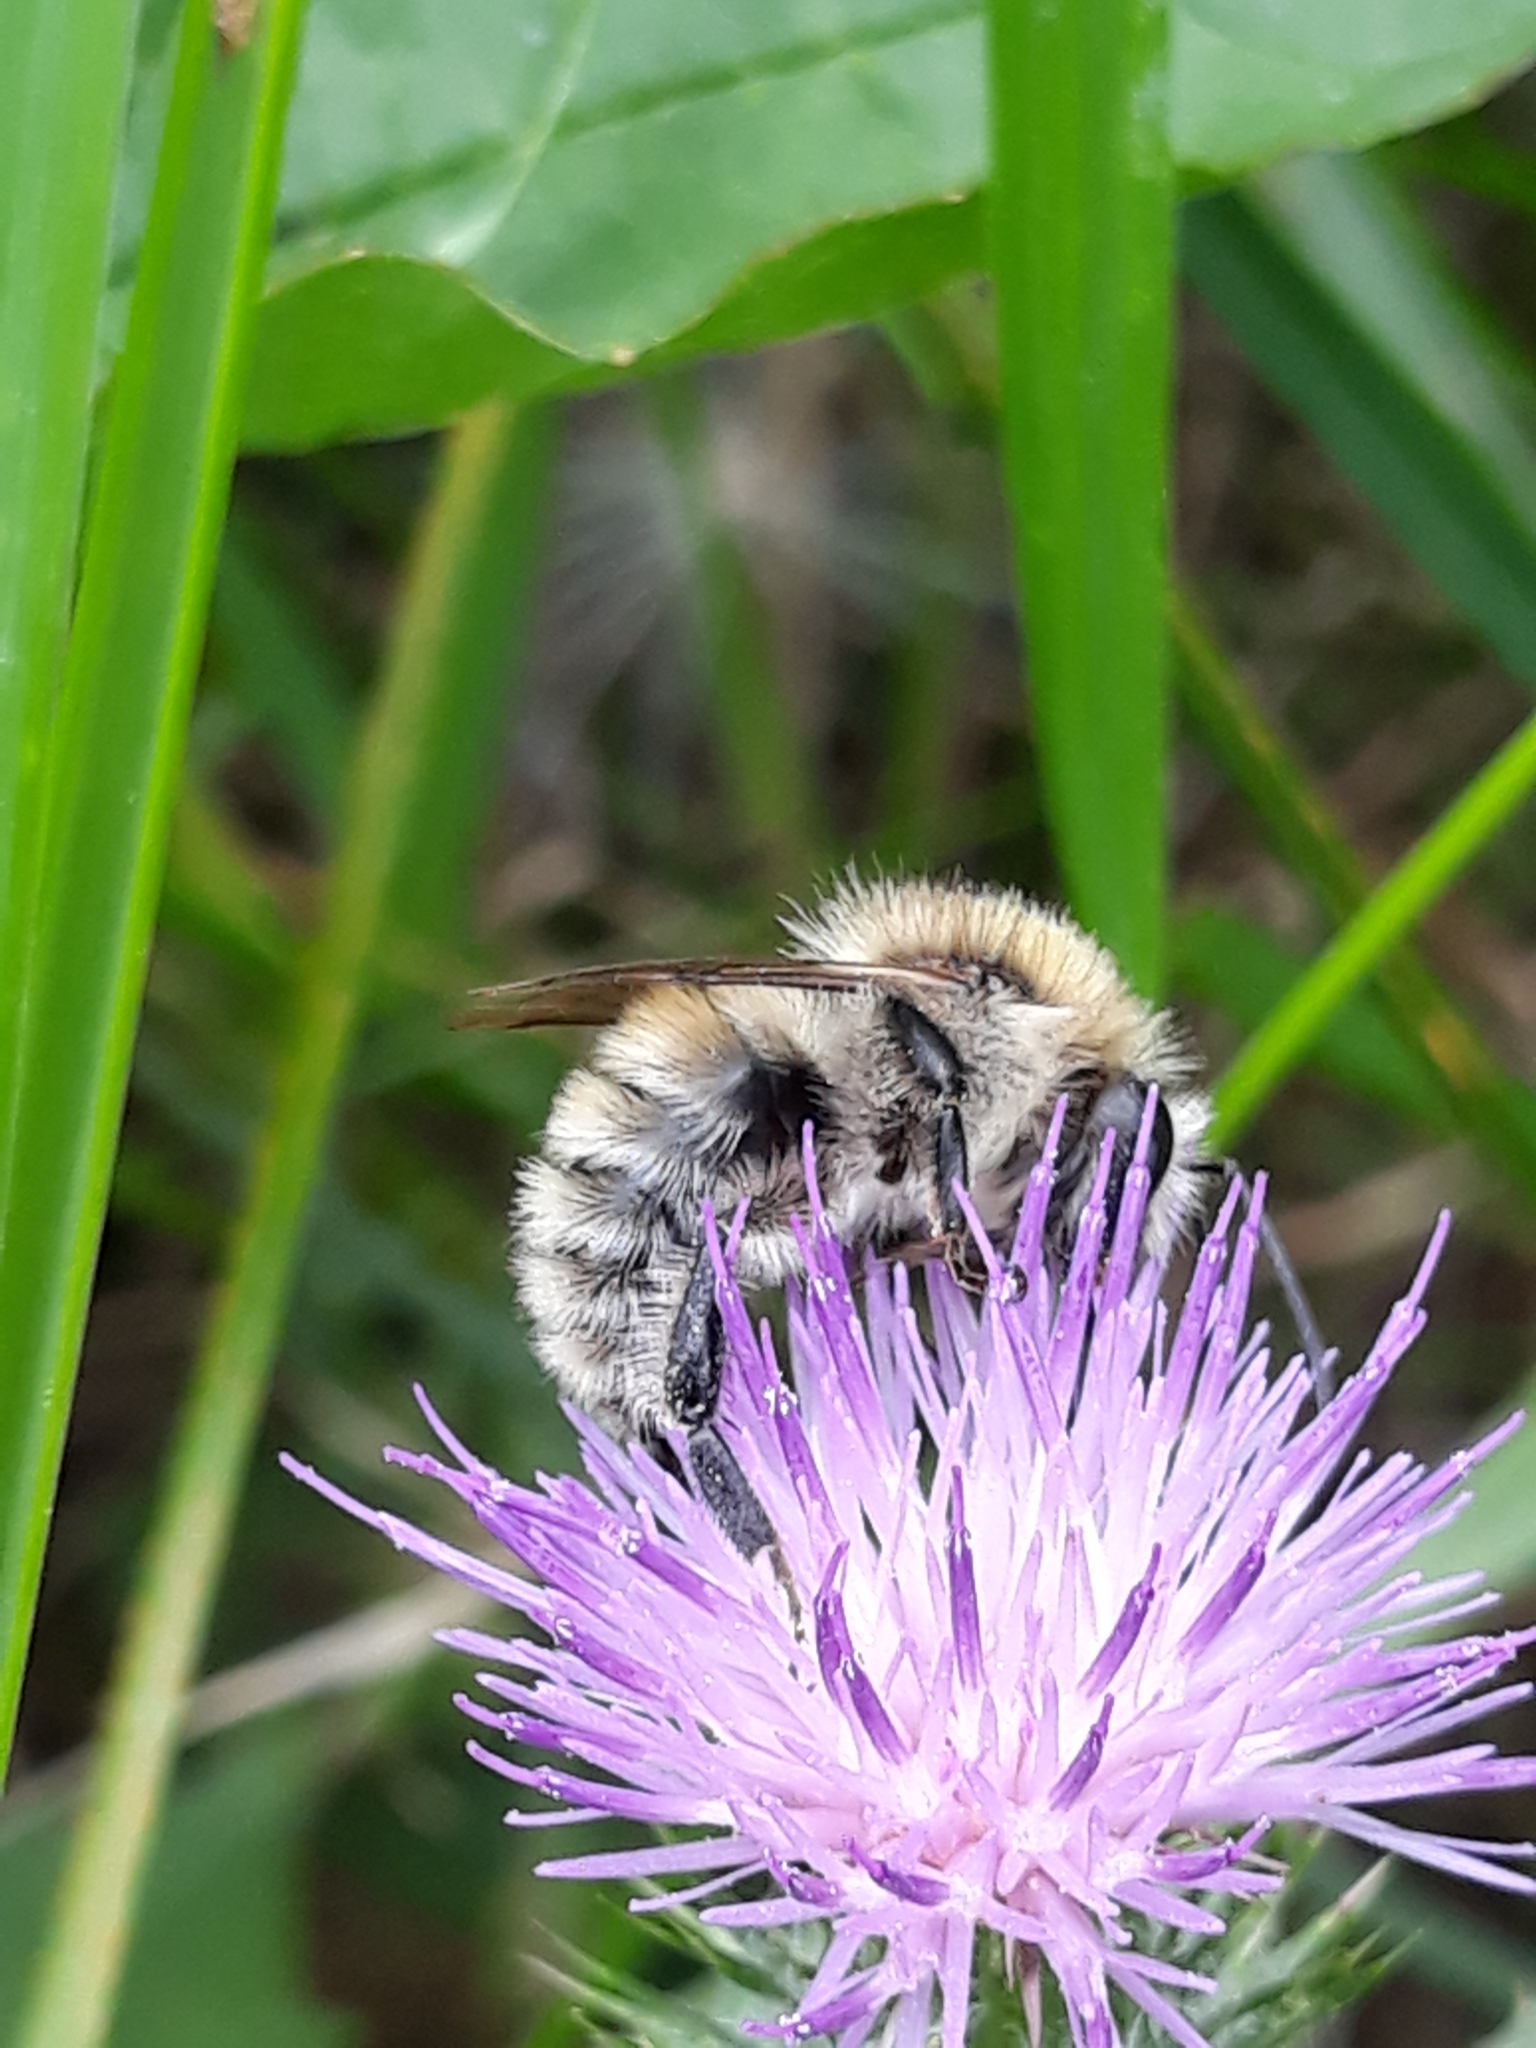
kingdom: Animalia
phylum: Arthropoda
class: Insecta
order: Hymenoptera
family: Apidae
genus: Bombus
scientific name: Bombus humilis
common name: Brown-banded carder-bee
